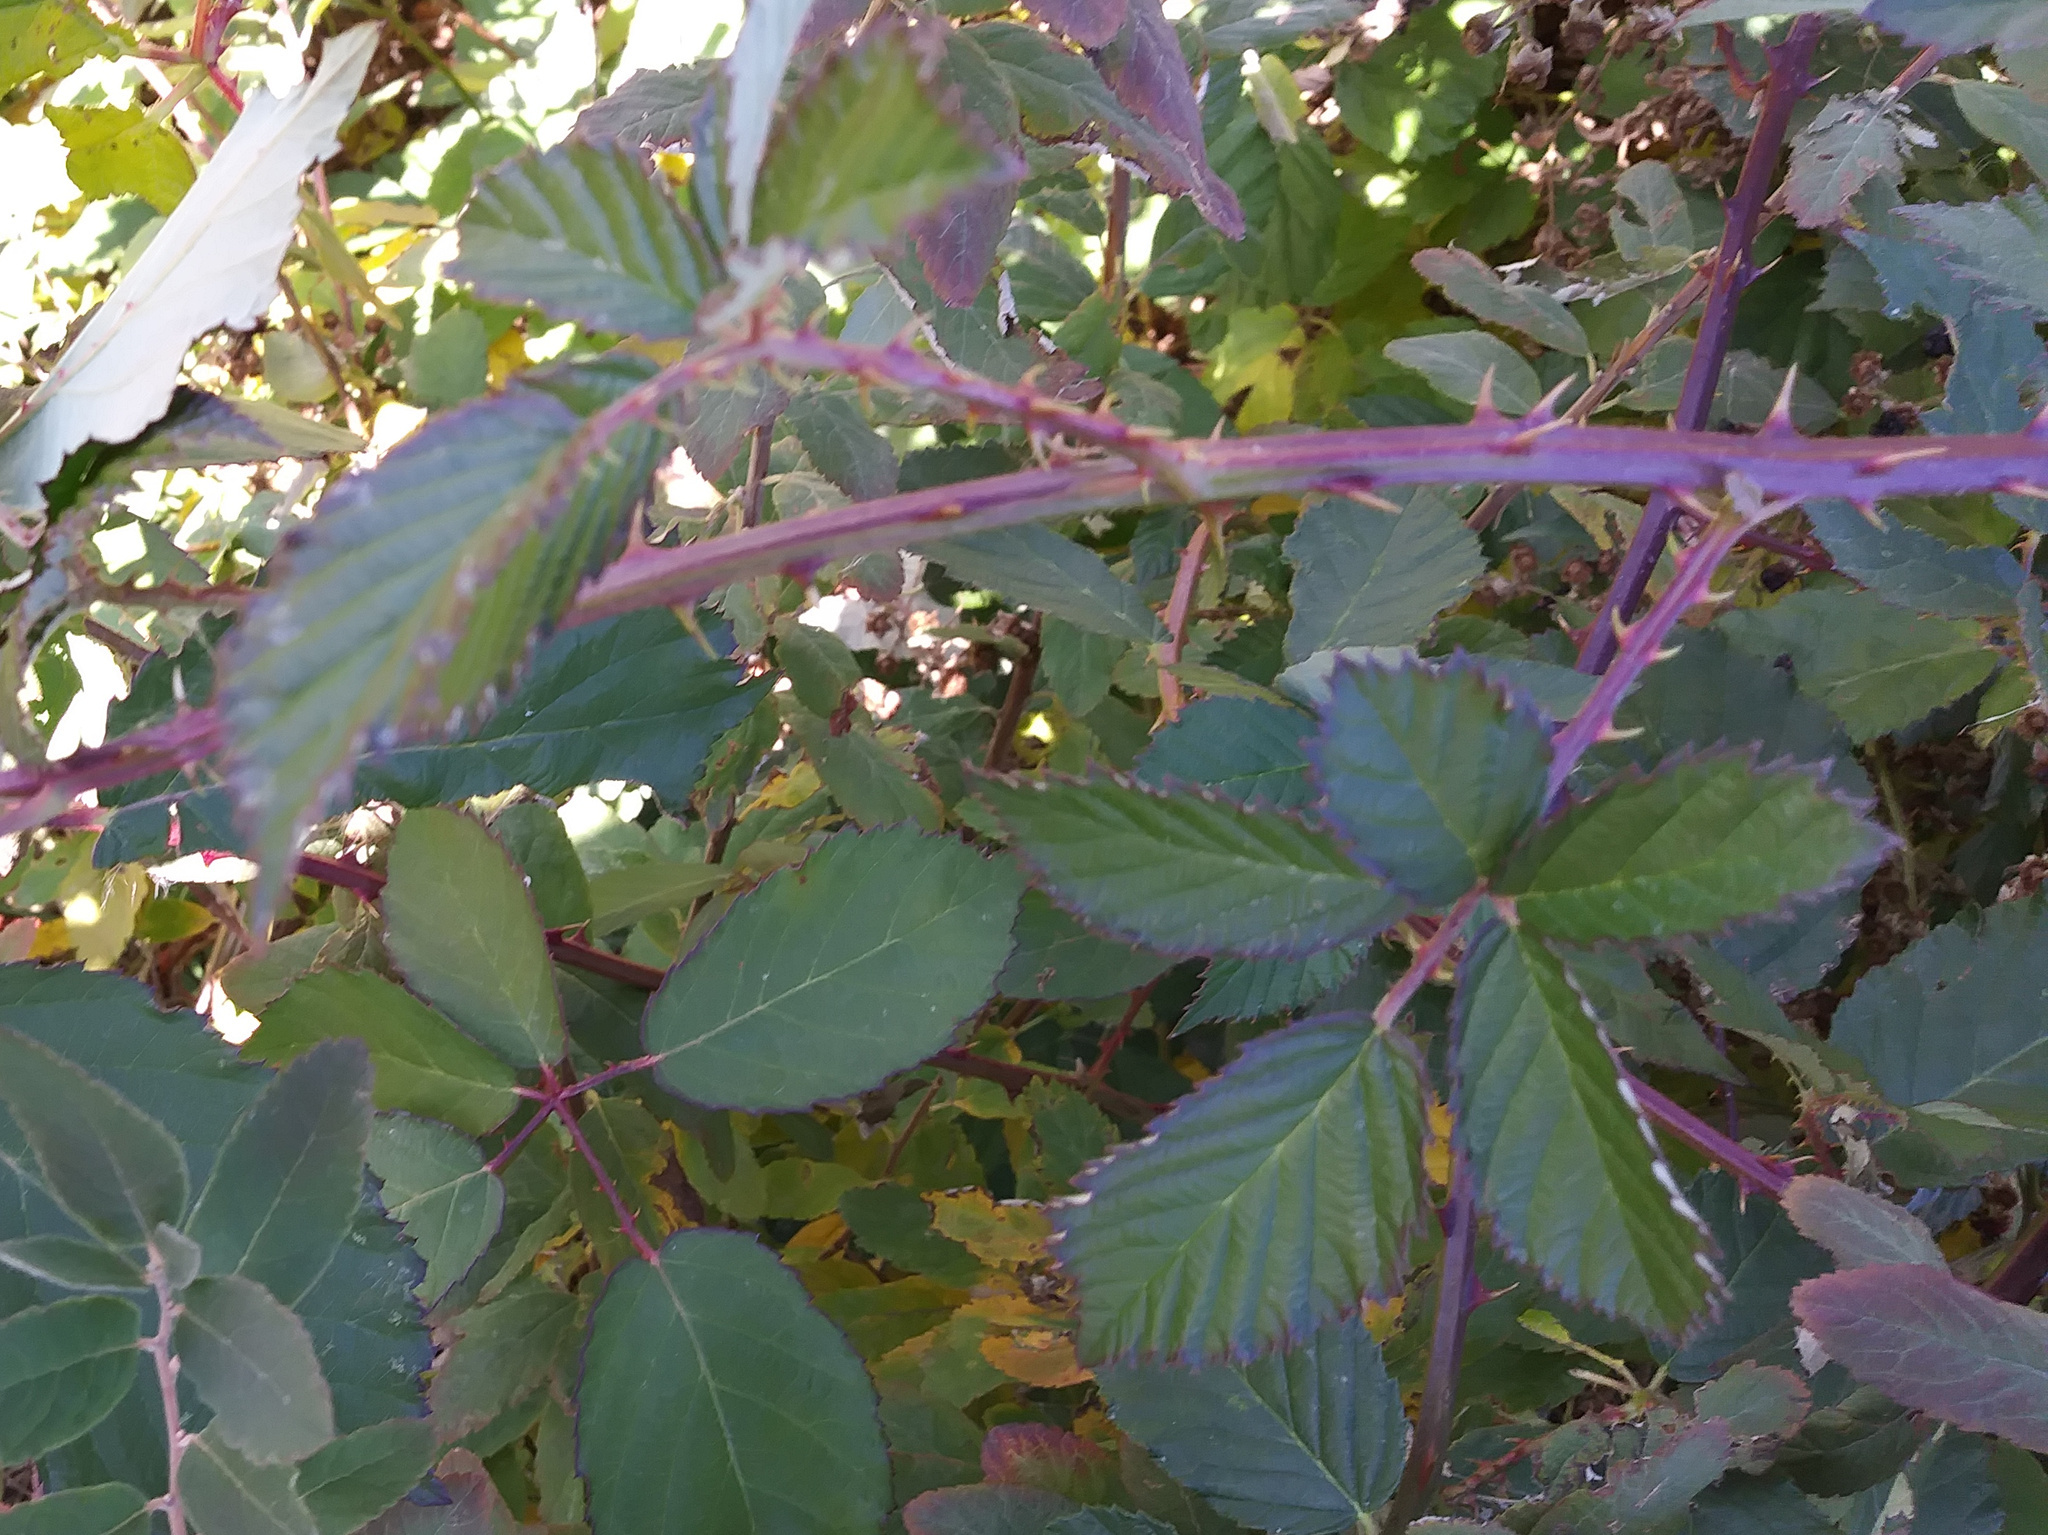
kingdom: Plantae
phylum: Tracheophyta
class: Magnoliopsida
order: Rosales
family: Rosaceae
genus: Rubus
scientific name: Rubus bifrons
